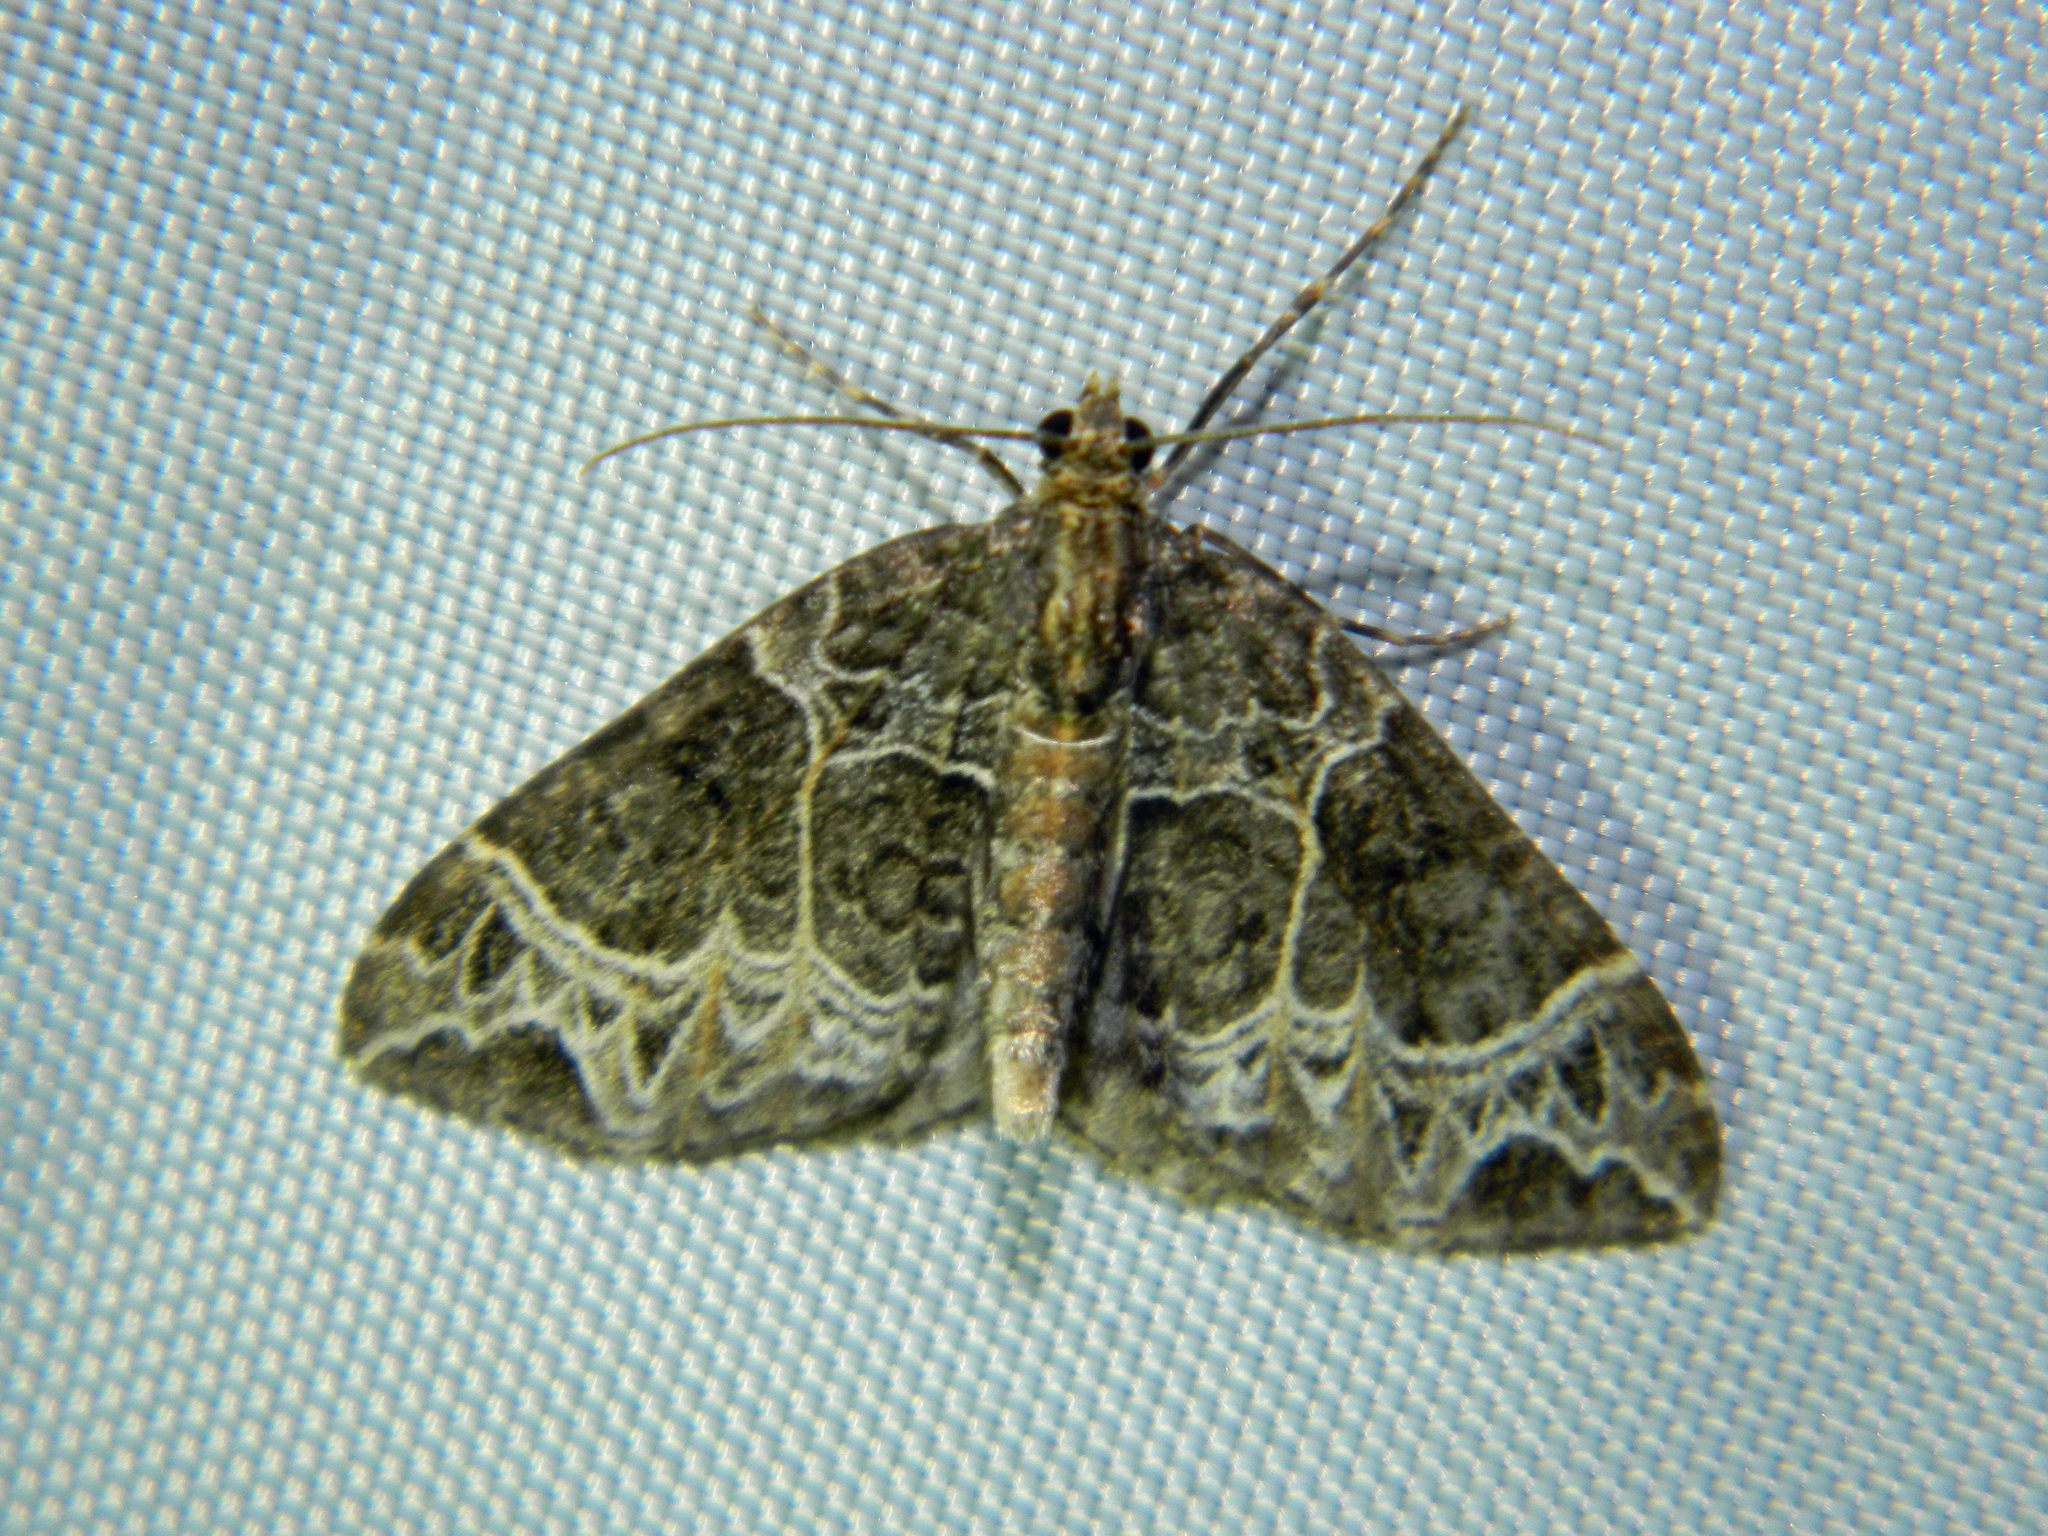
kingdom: Animalia
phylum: Arthropoda
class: Insecta
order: Lepidoptera
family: Geometridae
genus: Ecliptopera
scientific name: Ecliptopera silaceata
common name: Small phoenix
